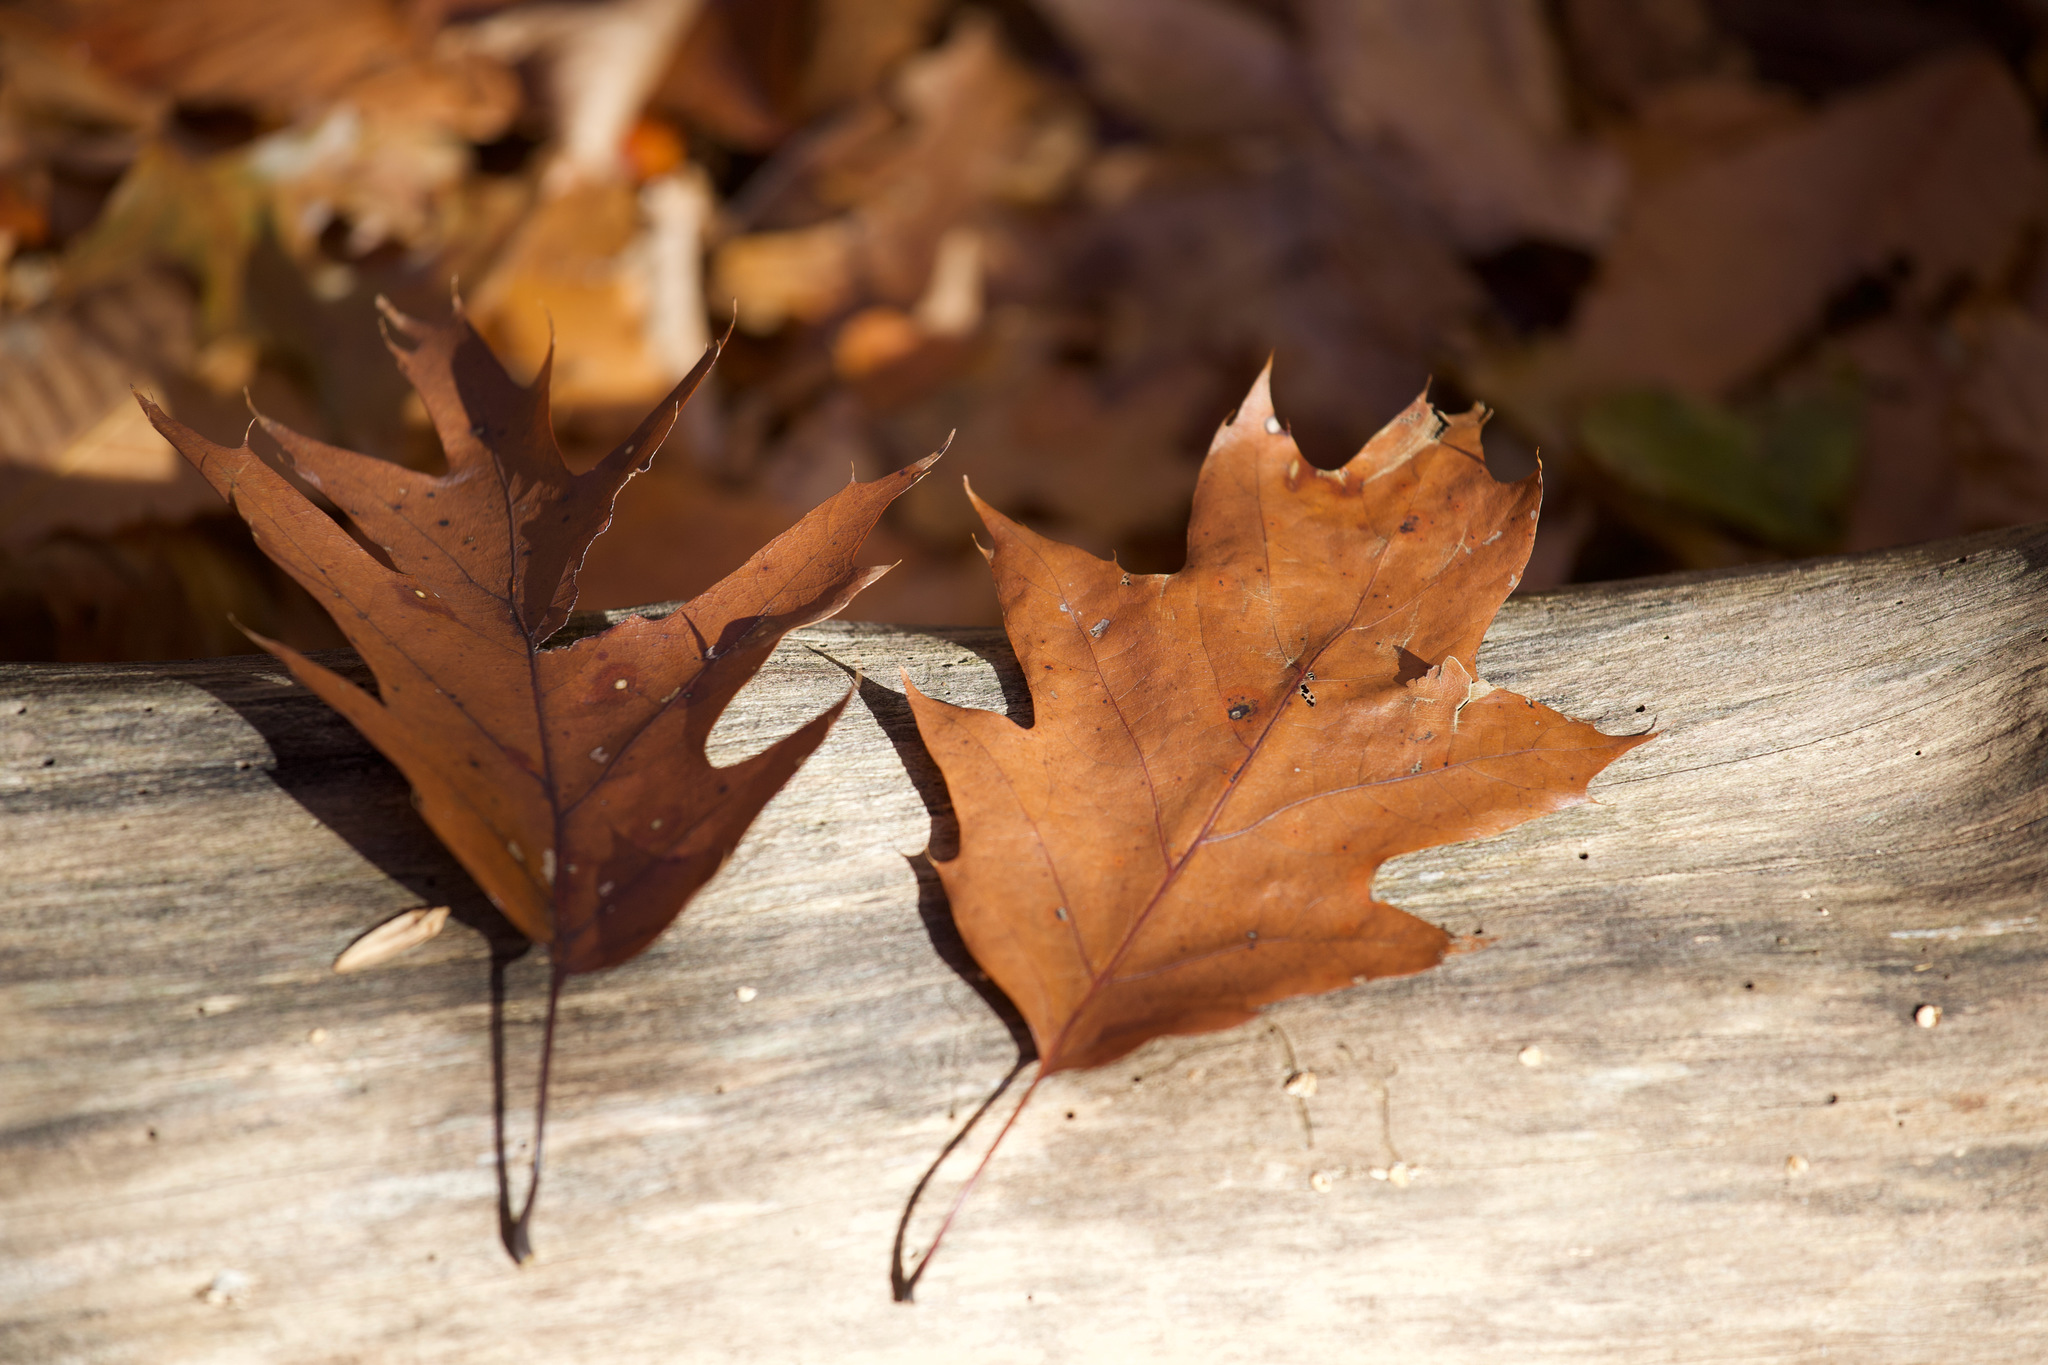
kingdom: Plantae
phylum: Tracheophyta
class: Magnoliopsida
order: Fagales
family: Fagaceae
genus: Quercus
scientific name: Quercus rubra
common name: Red oak
